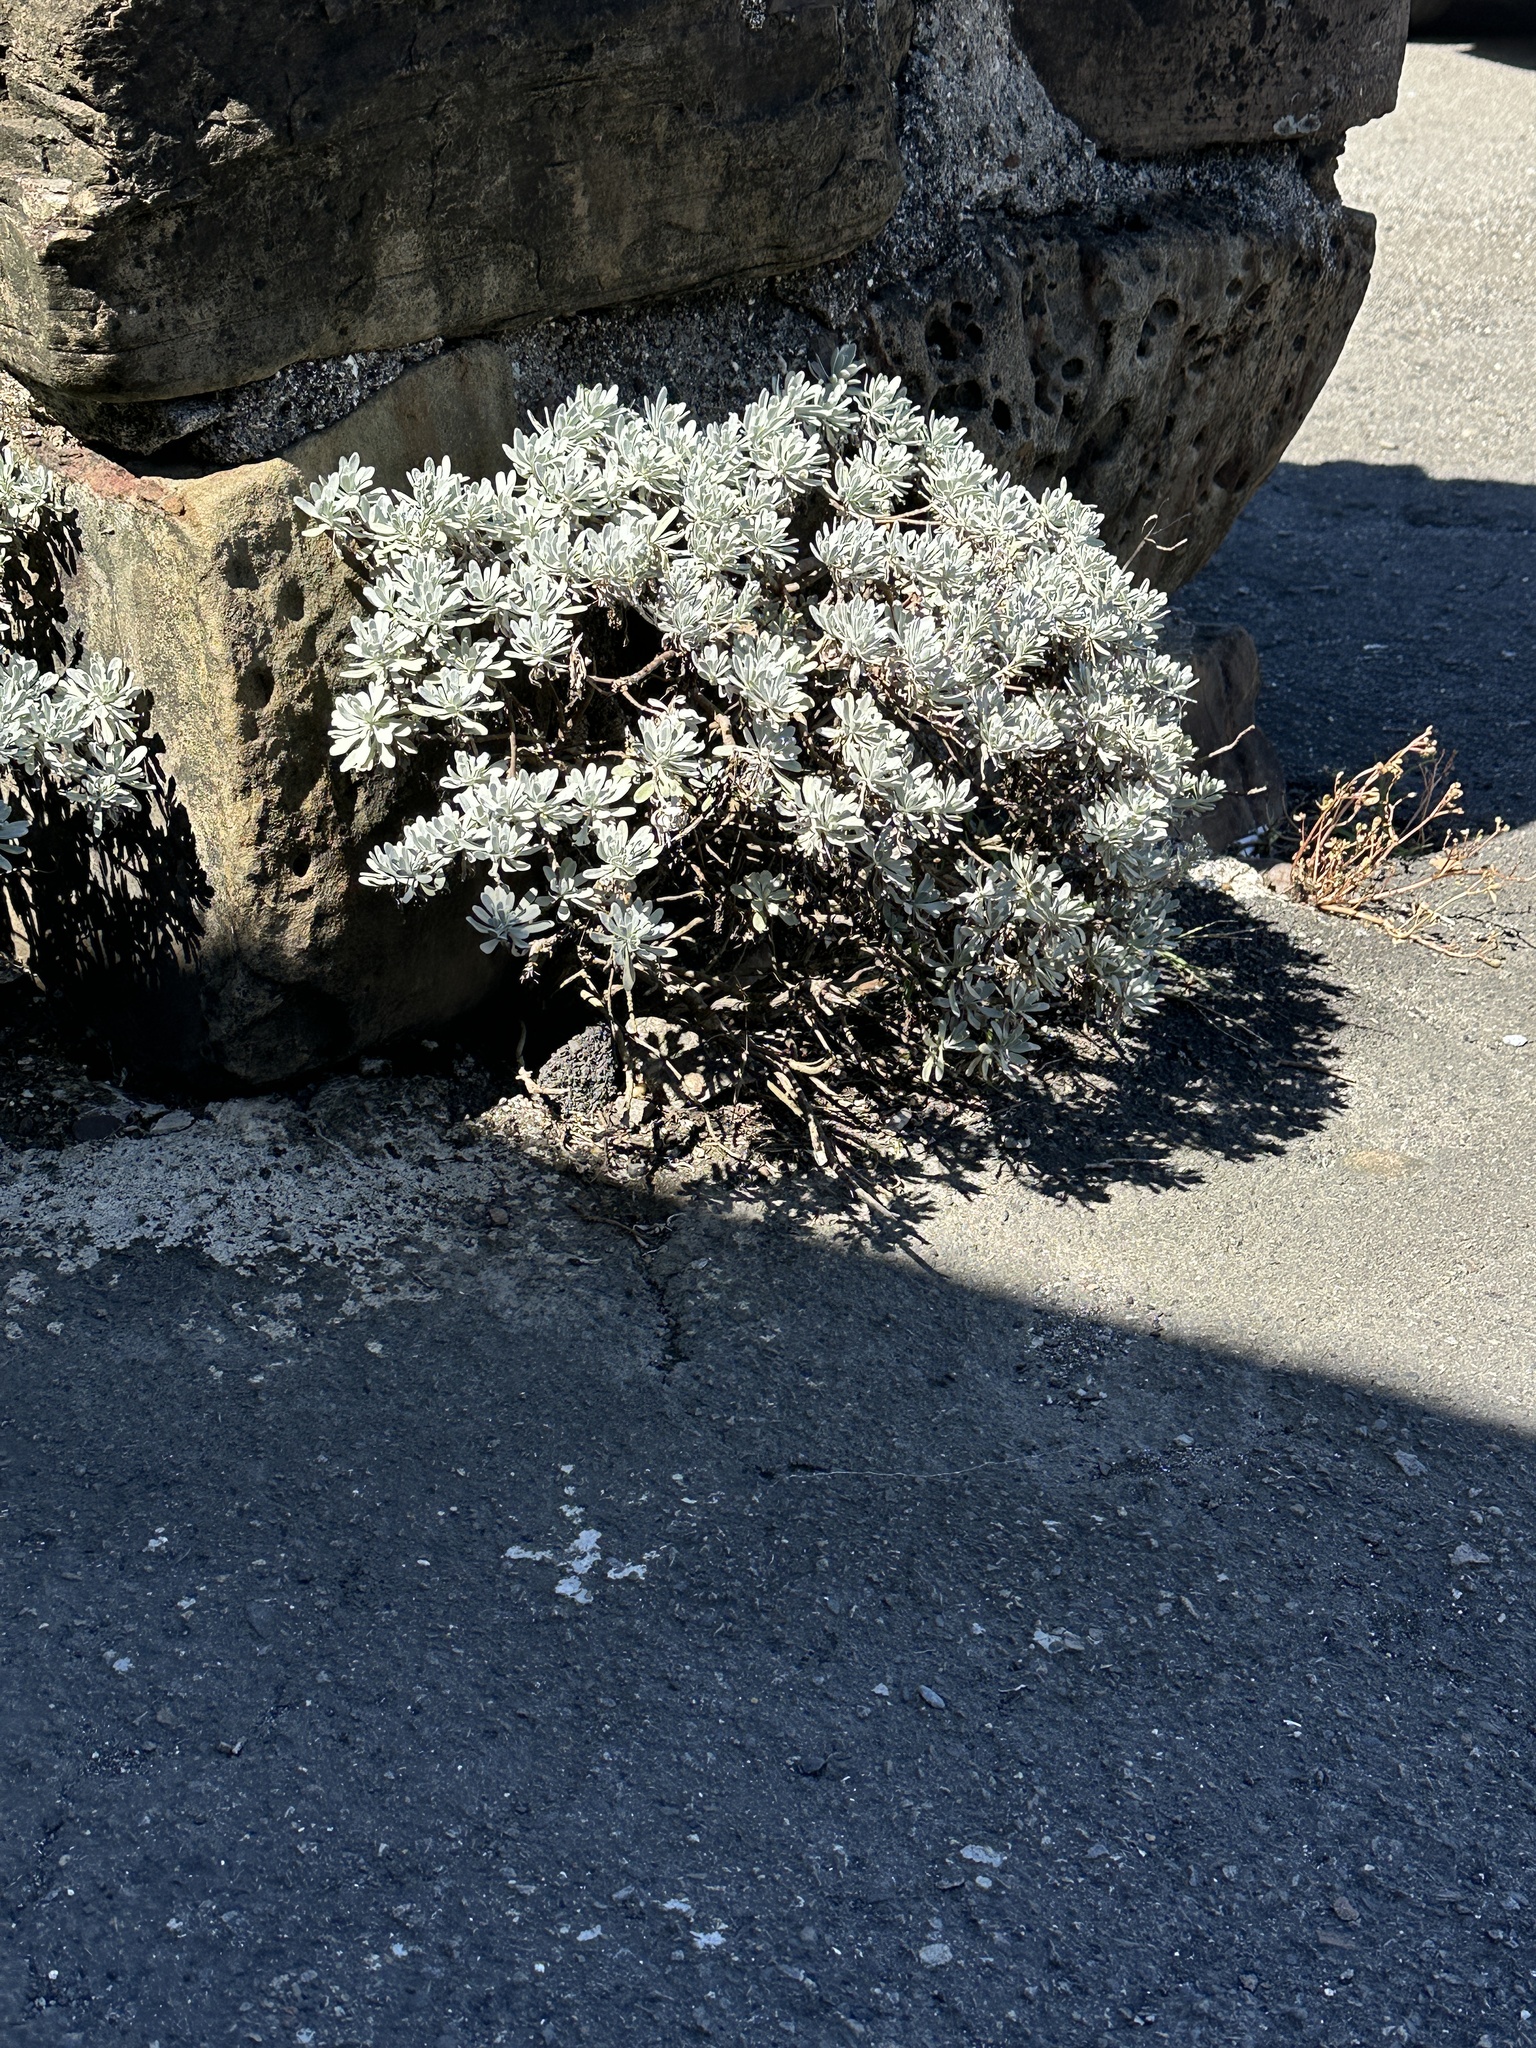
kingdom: Plantae
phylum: Tracheophyta
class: Magnoliopsida
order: Asterales
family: Asteraceae
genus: Crossostephium
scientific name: Crossostephium chinense
